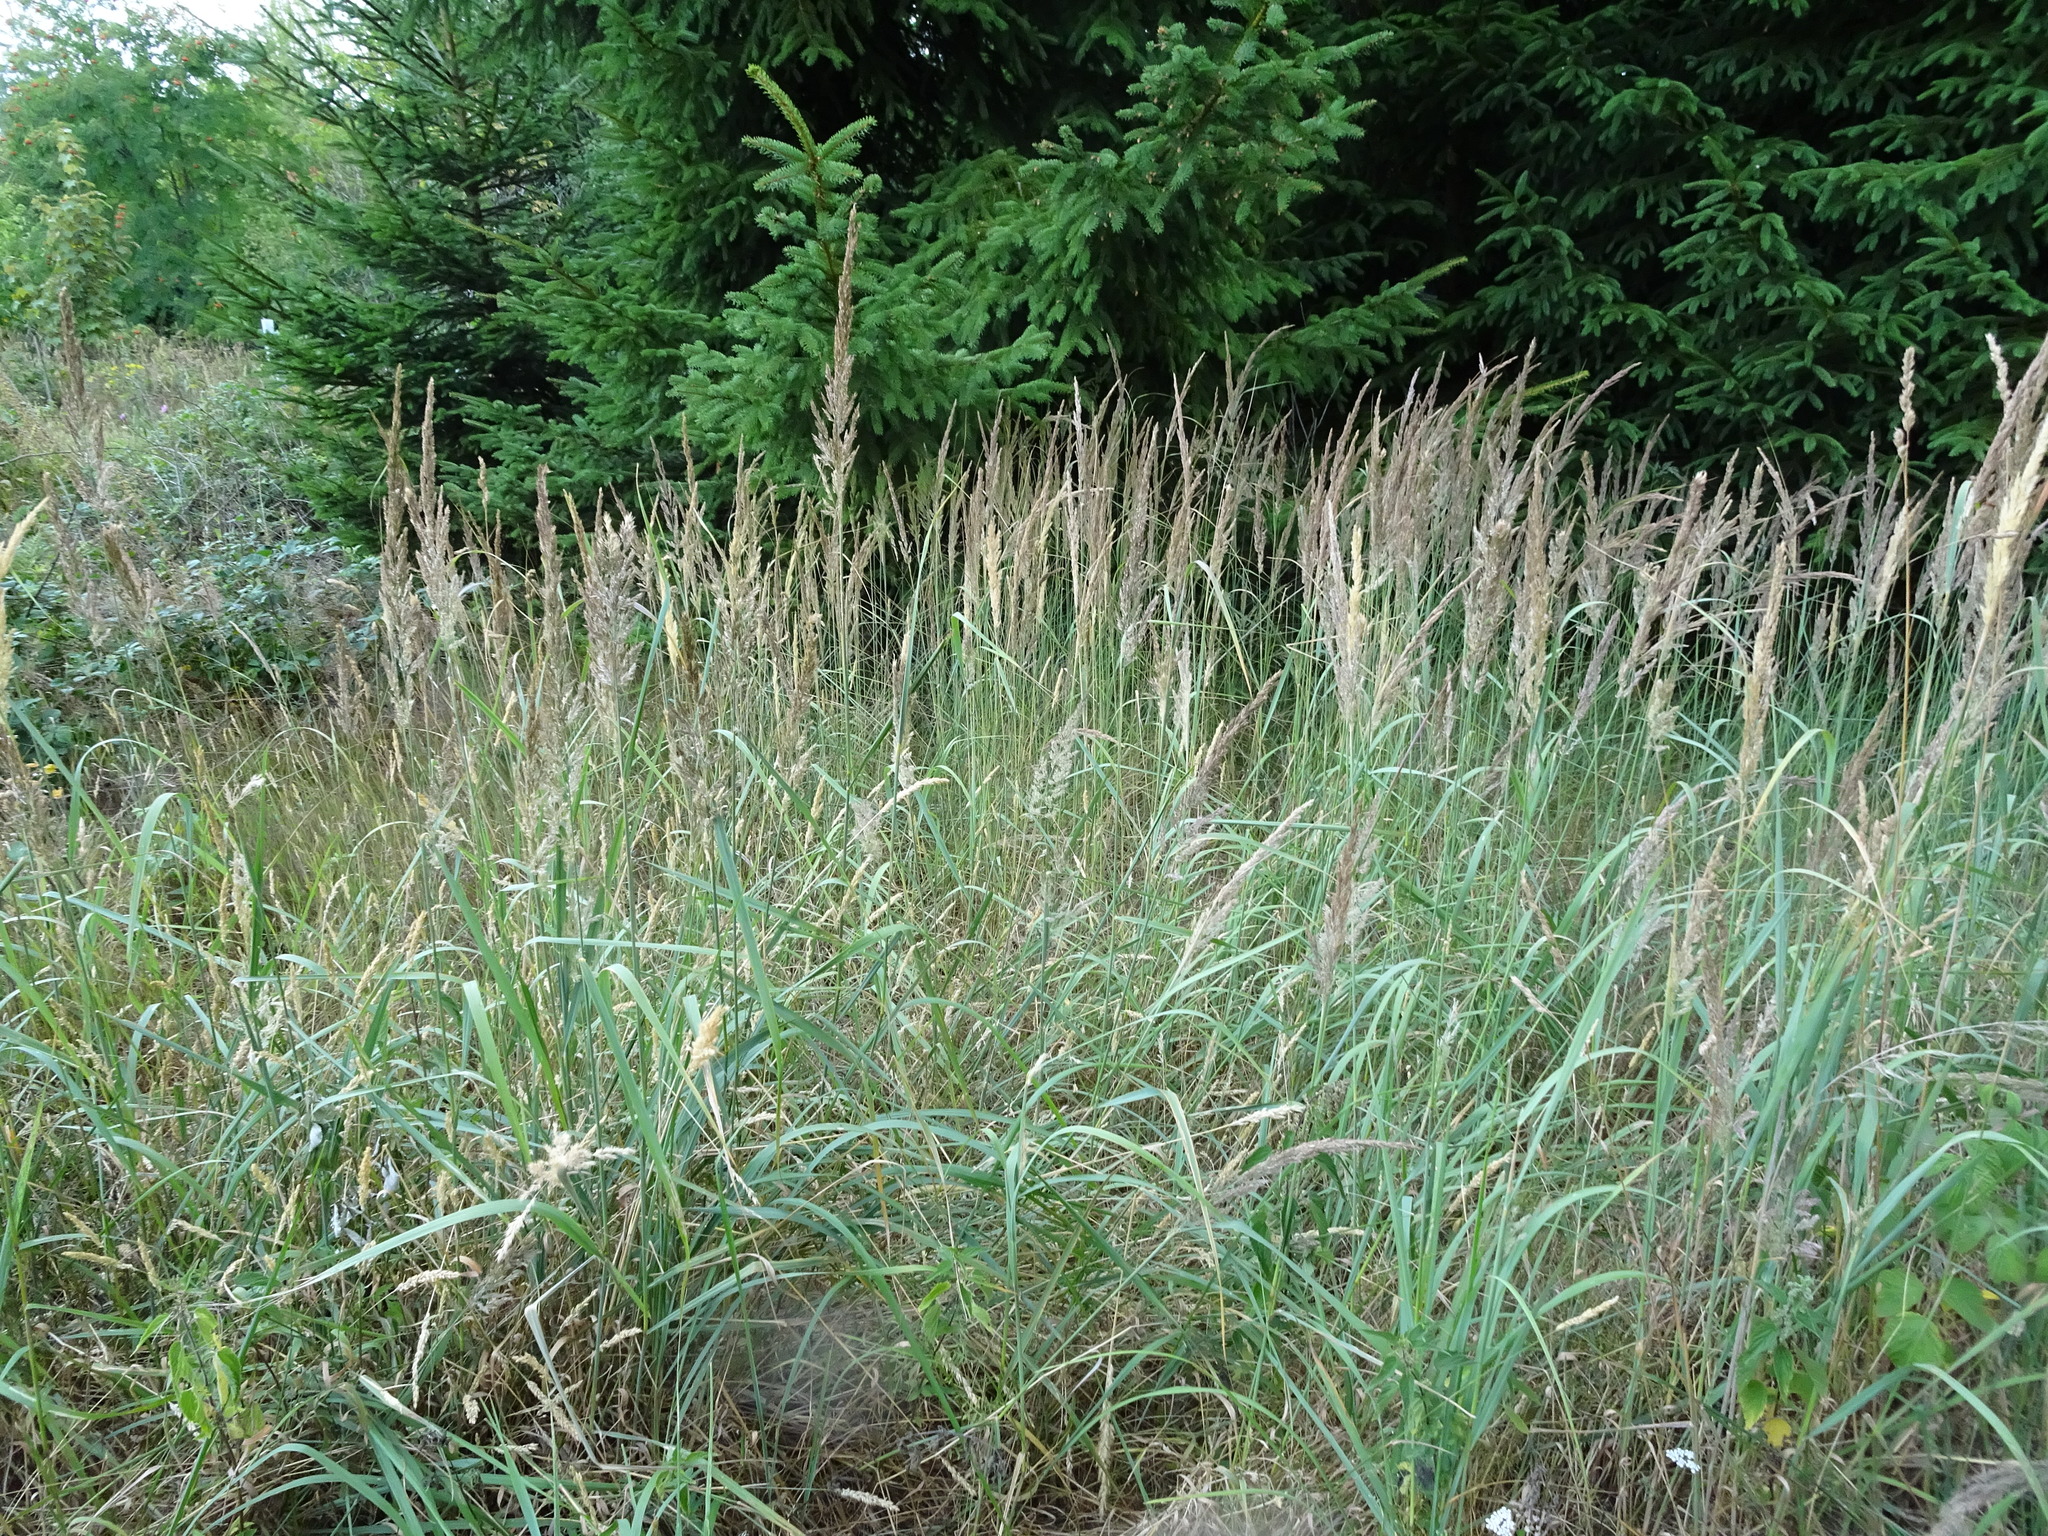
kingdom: Plantae
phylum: Tracheophyta
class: Liliopsida
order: Poales
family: Poaceae
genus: Calamagrostis
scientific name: Calamagrostis epigejos
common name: Wood small-reed
